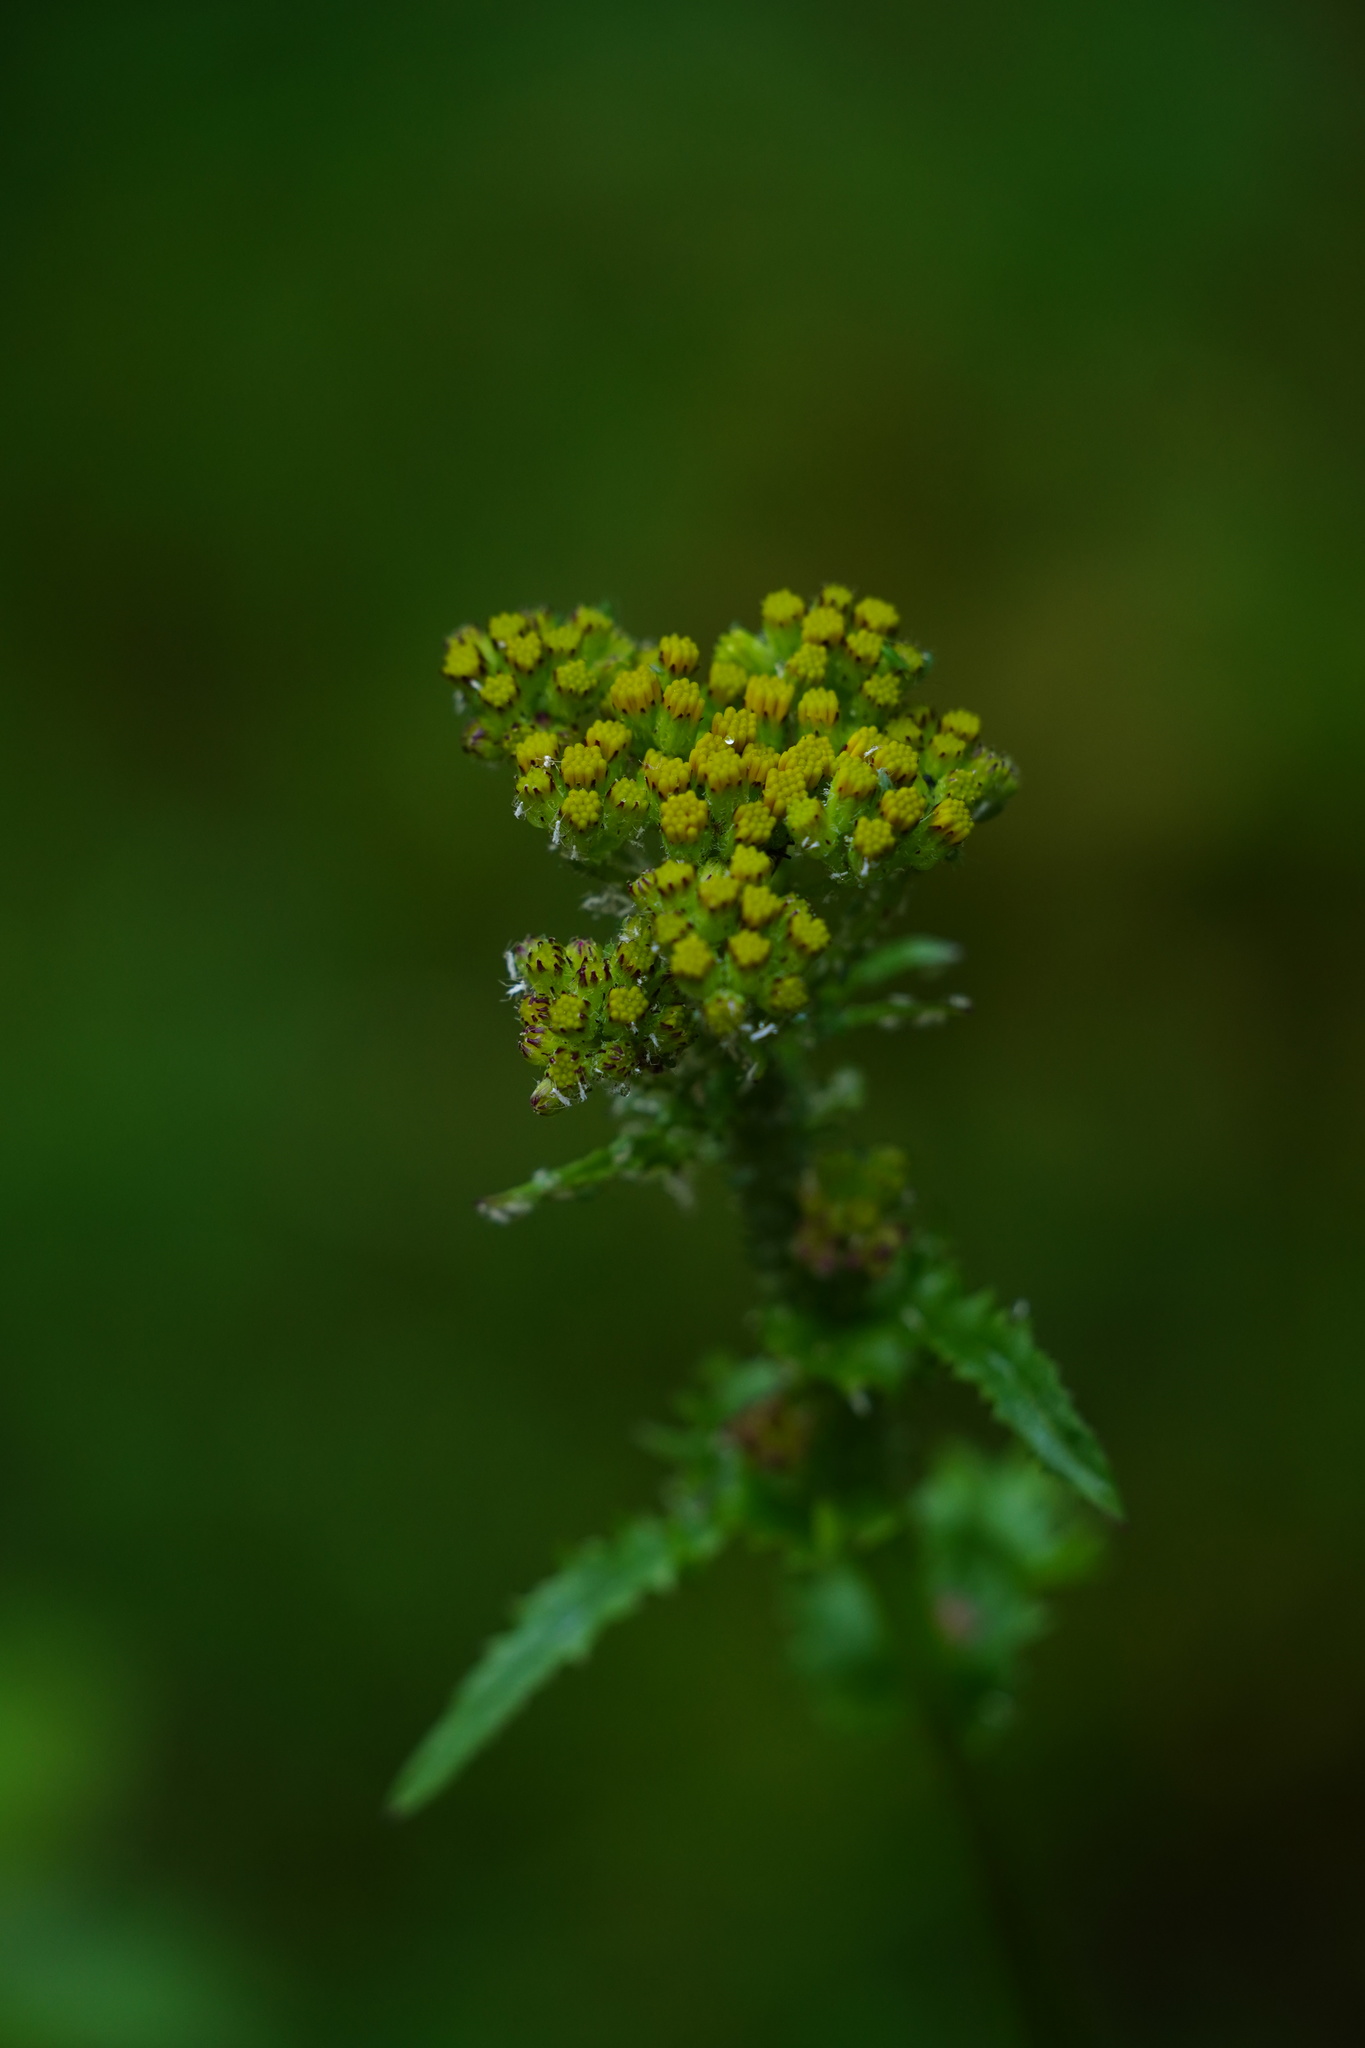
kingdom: Plantae
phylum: Tracheophyta
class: Magnoliopsida
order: Asterales
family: Asteraceae
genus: Senecio
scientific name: Senecio vulgaris
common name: Old-man-in-the-spring
